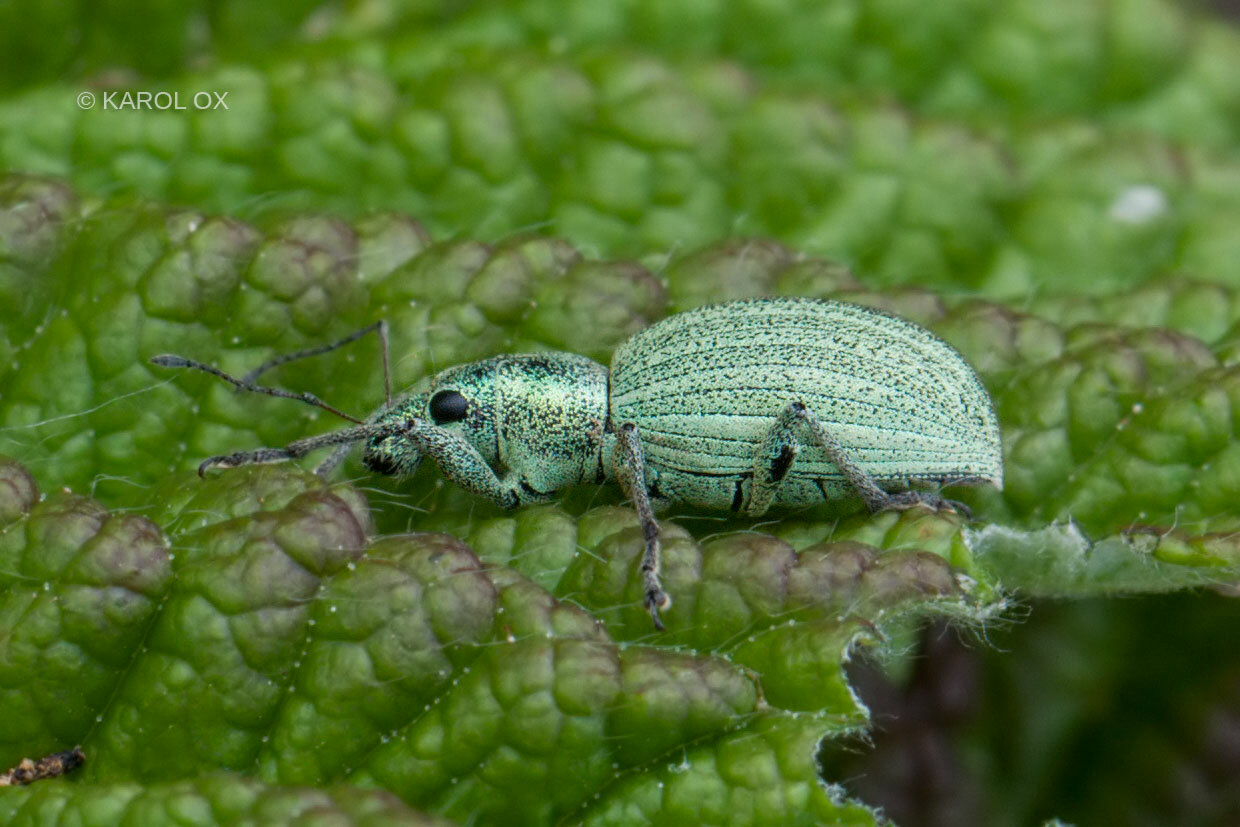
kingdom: Animalia
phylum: Arthropoda
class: Insecta
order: Coleoptera
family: Curculionidae
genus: Eusomus
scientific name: Eusomus ovulum
